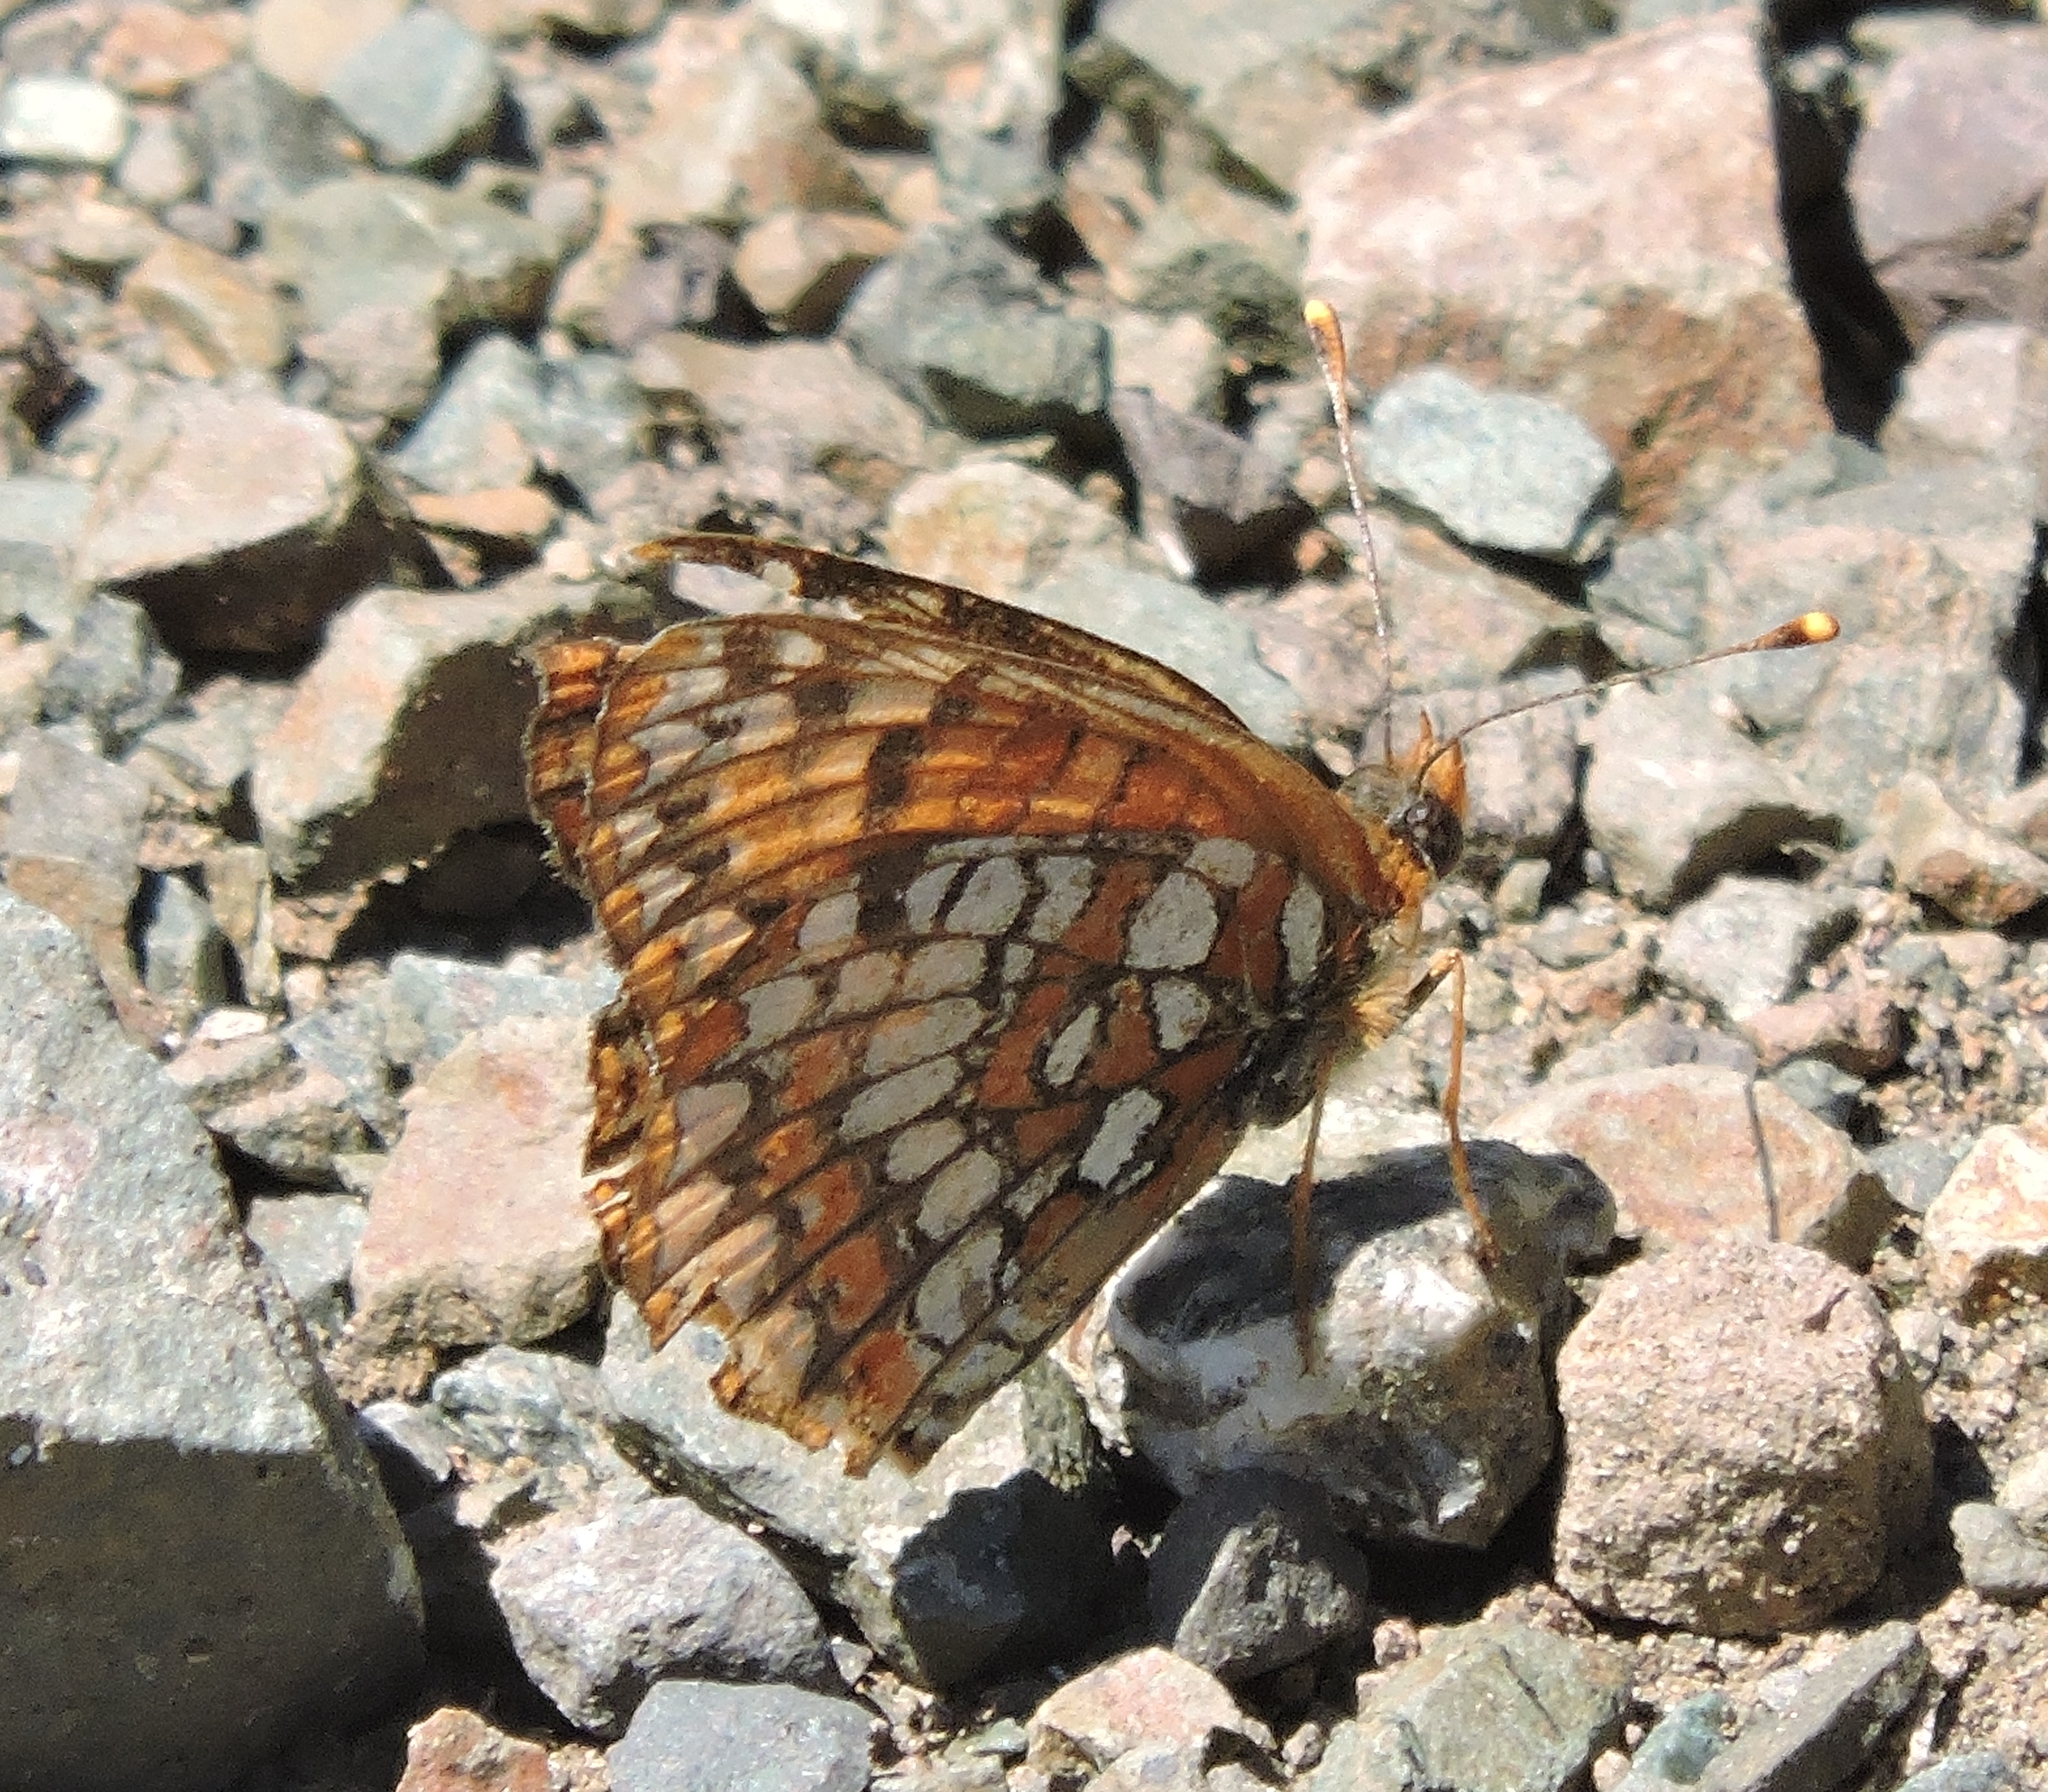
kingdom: Animalia
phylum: Arthropoda
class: Insecta
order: Lepidoptera
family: Nymphalidae
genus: Chlosyne
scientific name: Chlosyne palla
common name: Northern checkerspot
